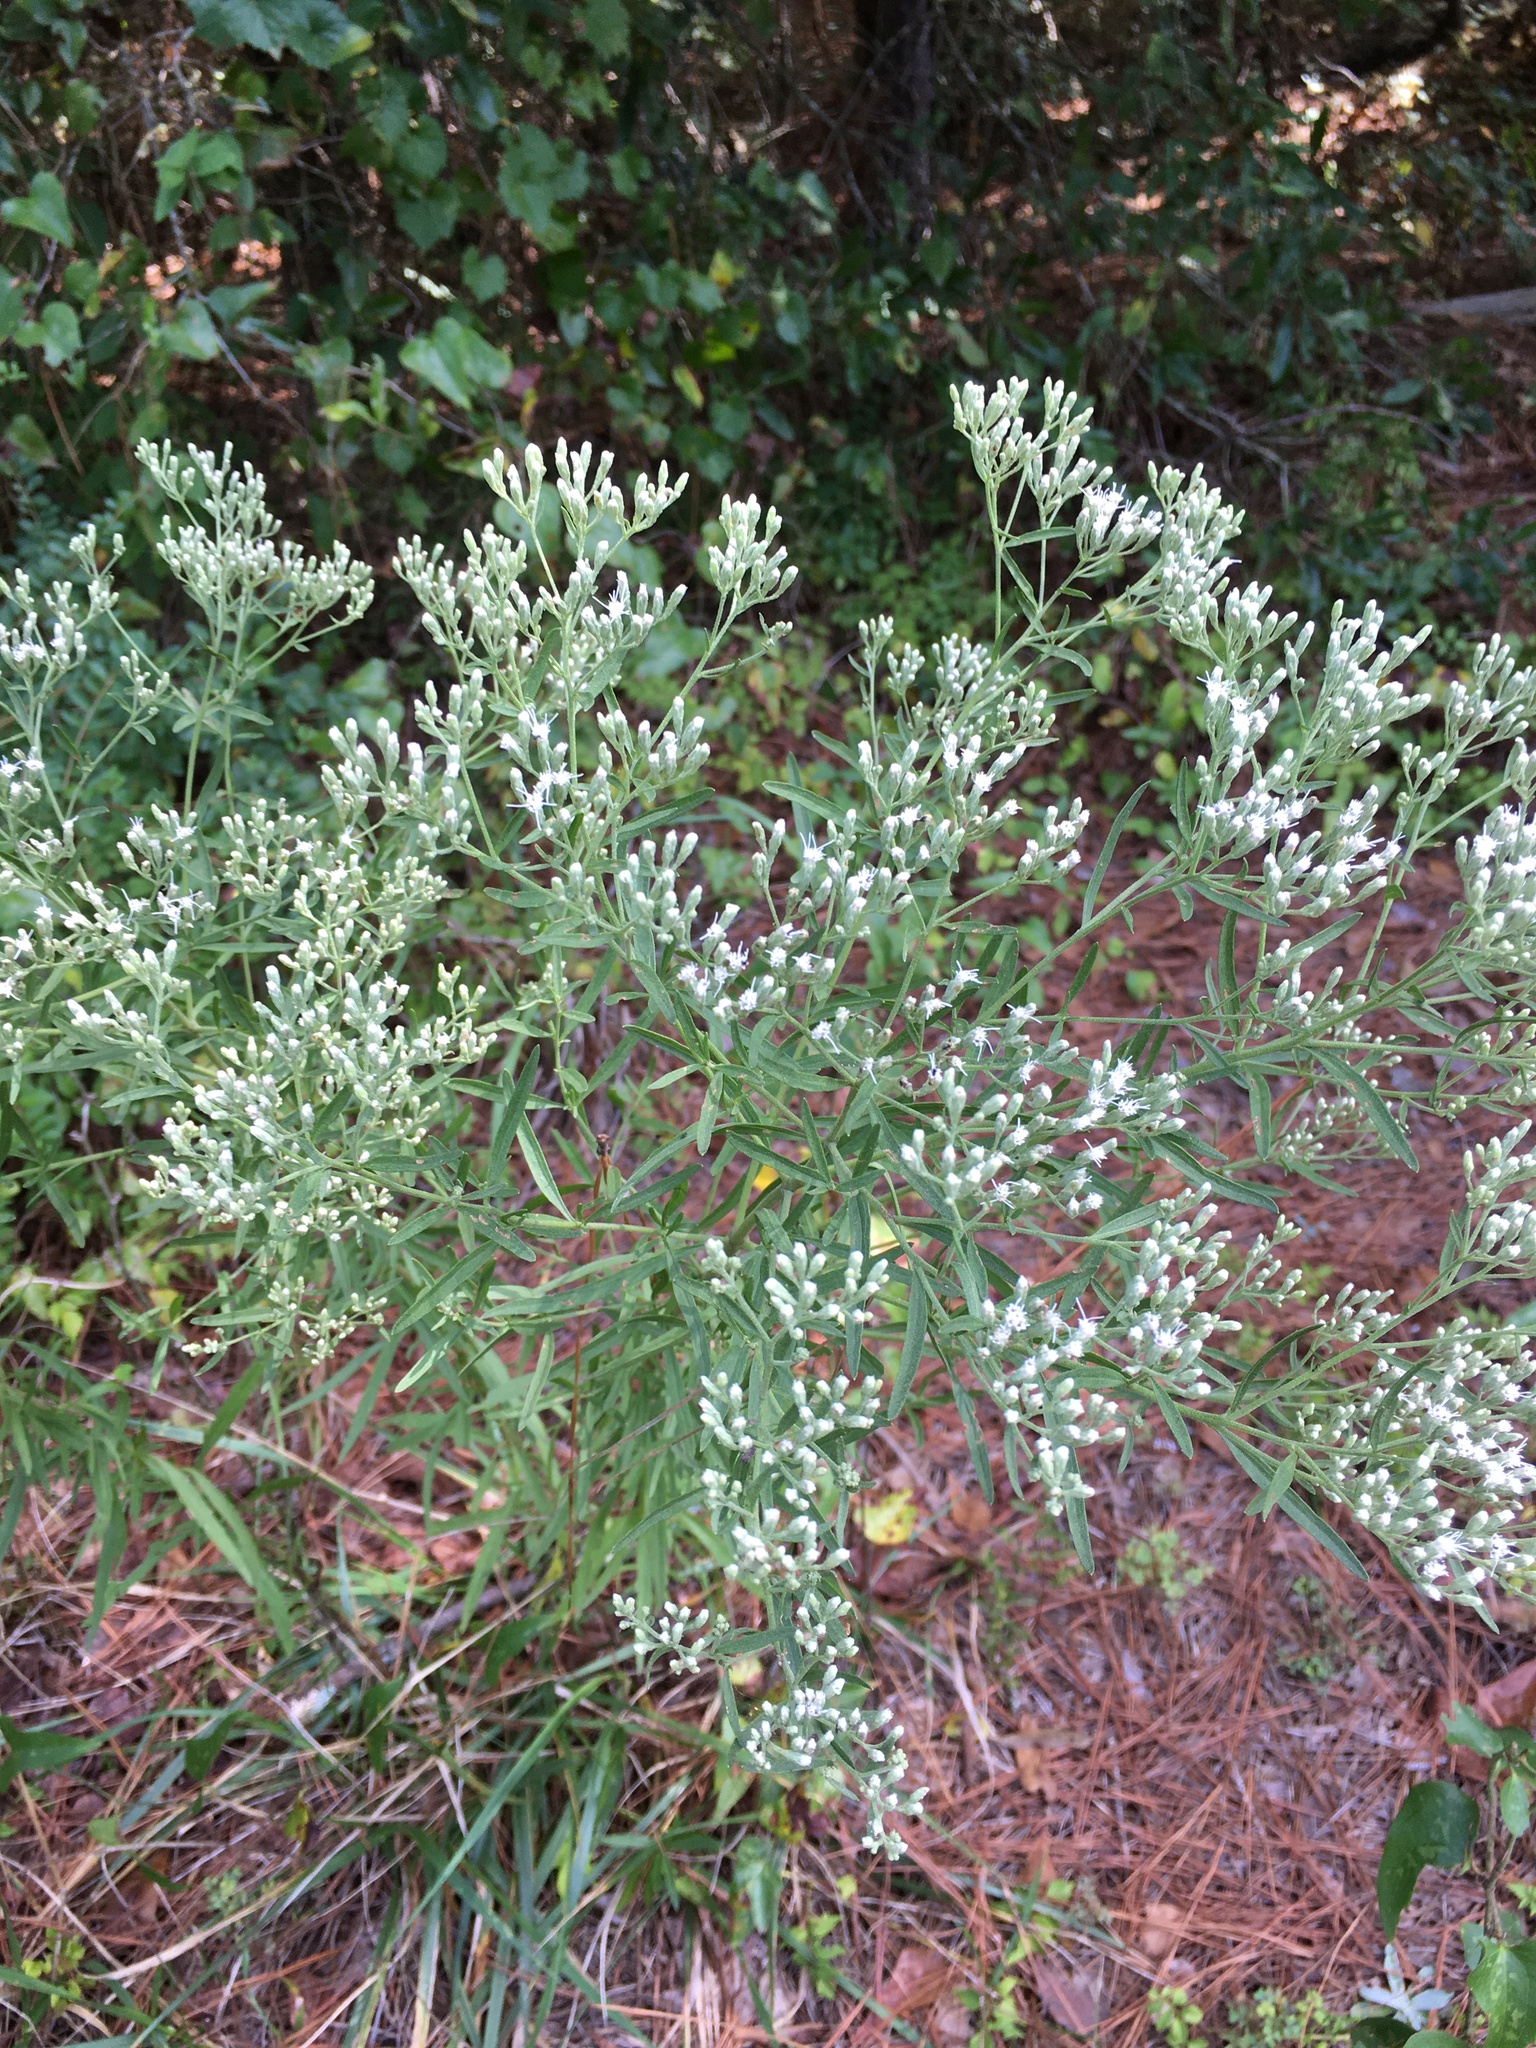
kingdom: Plantae
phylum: Tracheophyta
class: Magnoliopsida
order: Asterales
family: Asteraceae
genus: Eupatorium
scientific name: Eupatorium torreyanum
